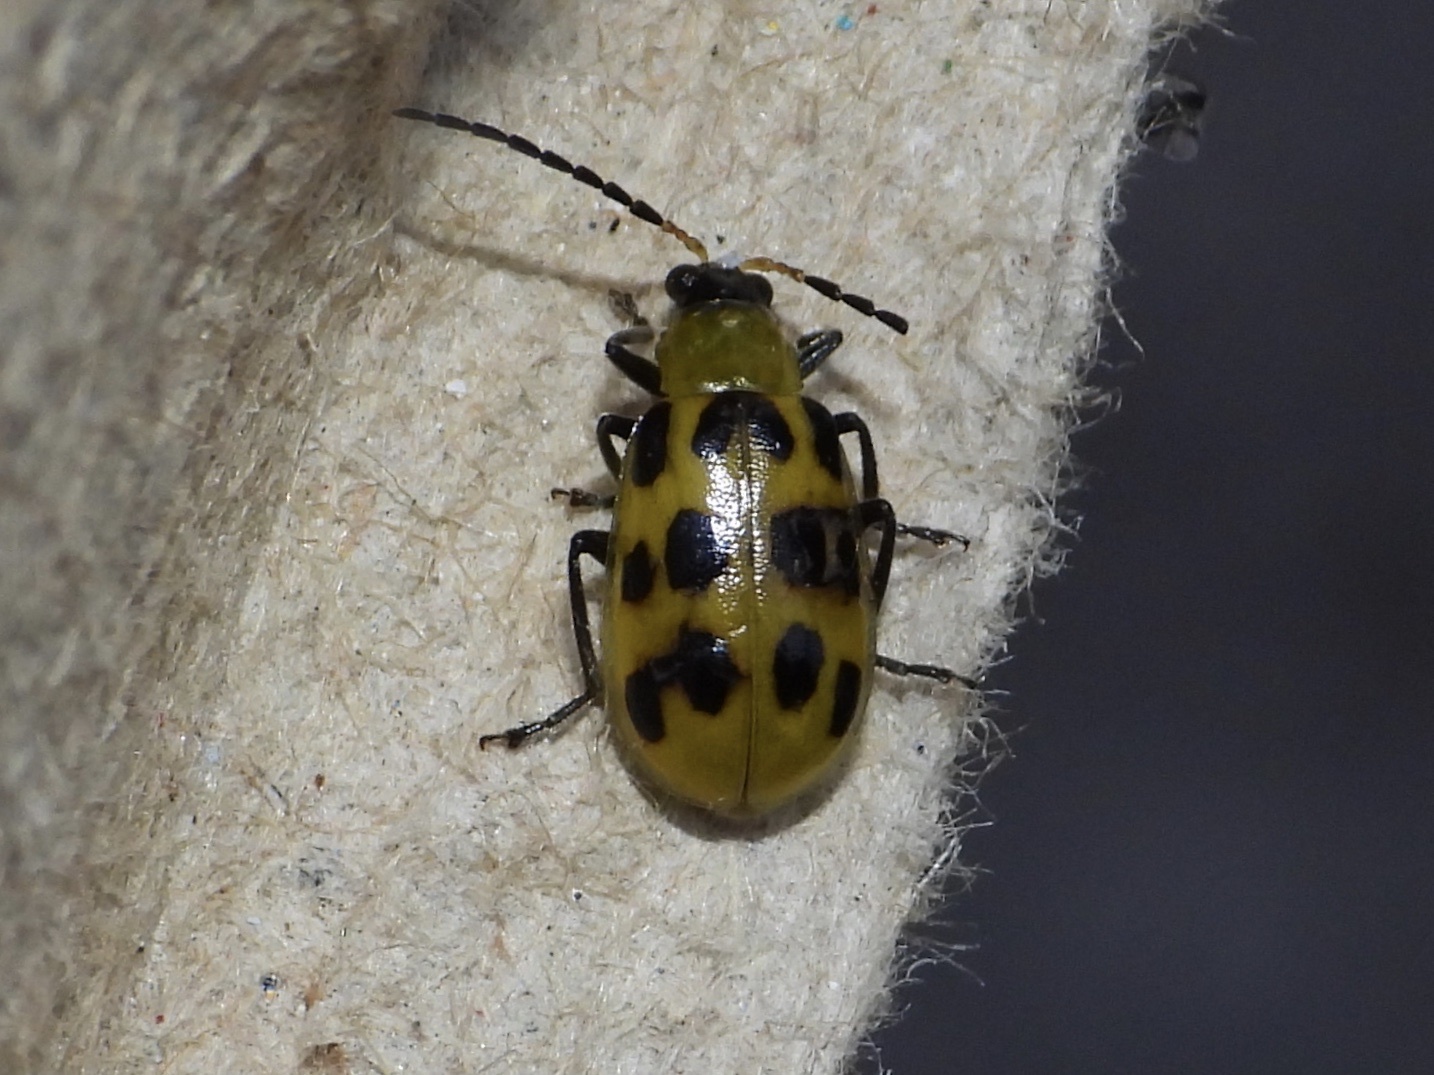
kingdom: Animalia
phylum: Arthropoda
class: Insecta
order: Coleoptera
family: Chrysomelidae
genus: Diabrotica
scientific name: Diabrotica undecimpunctata
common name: Spotted cucumber beetle
